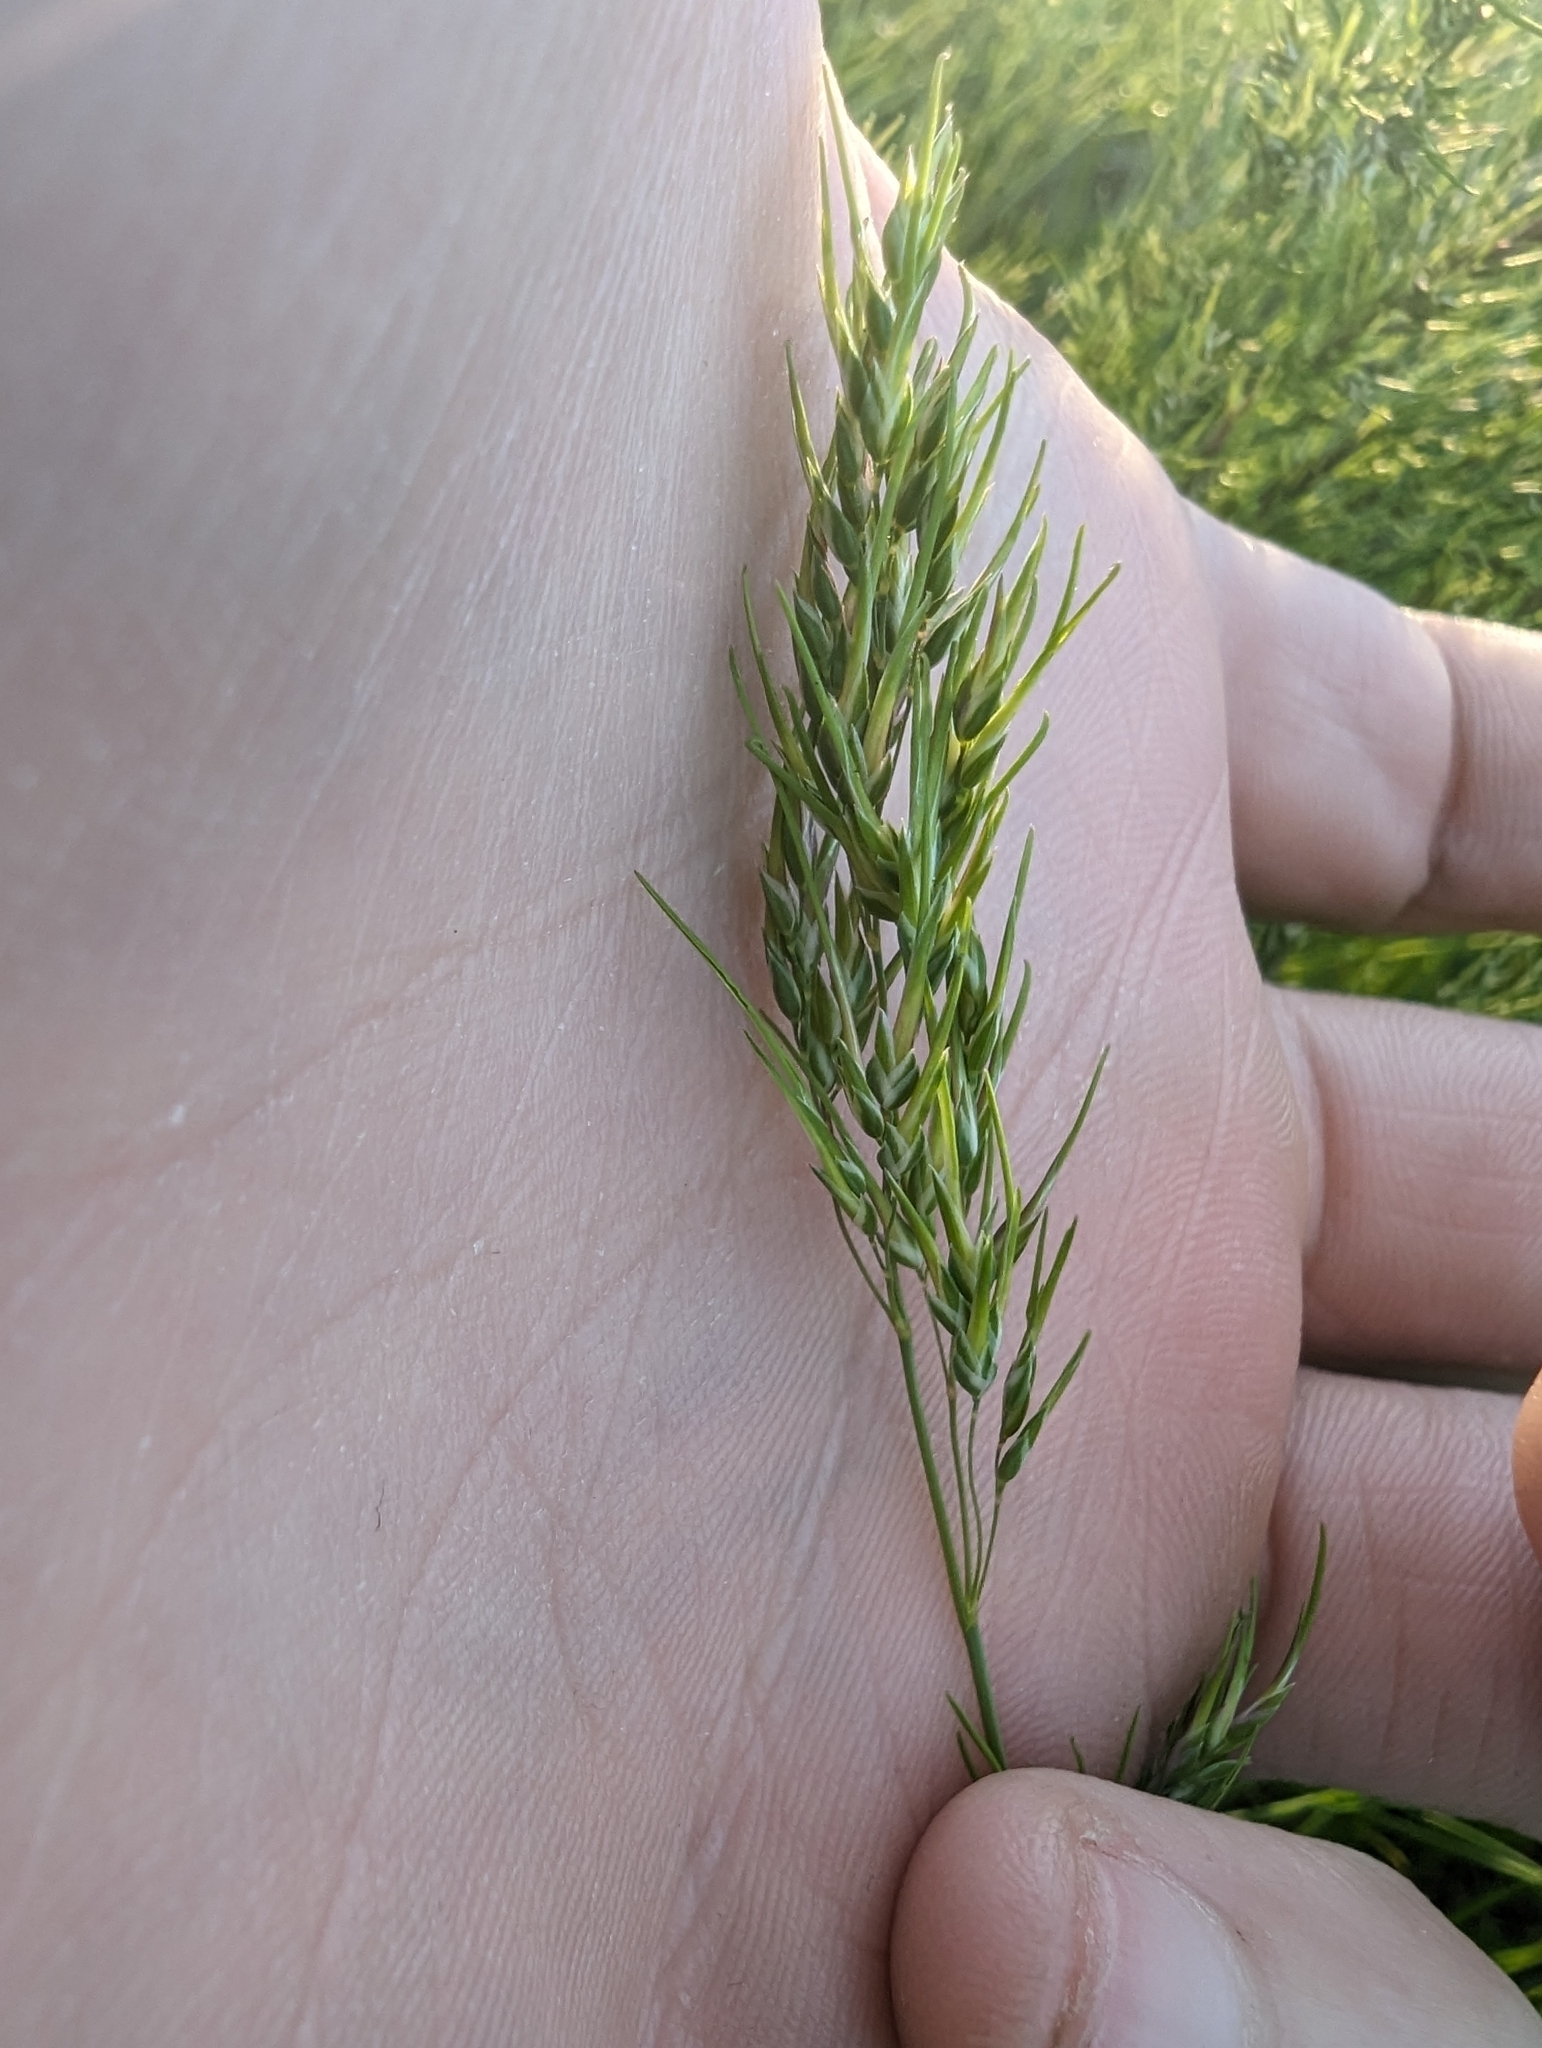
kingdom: Plantae
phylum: Tracheophyta
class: Liliopsida
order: Poales
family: Poaceae
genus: Poa
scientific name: Poa bulbosa
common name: Bulbous bluegrass
